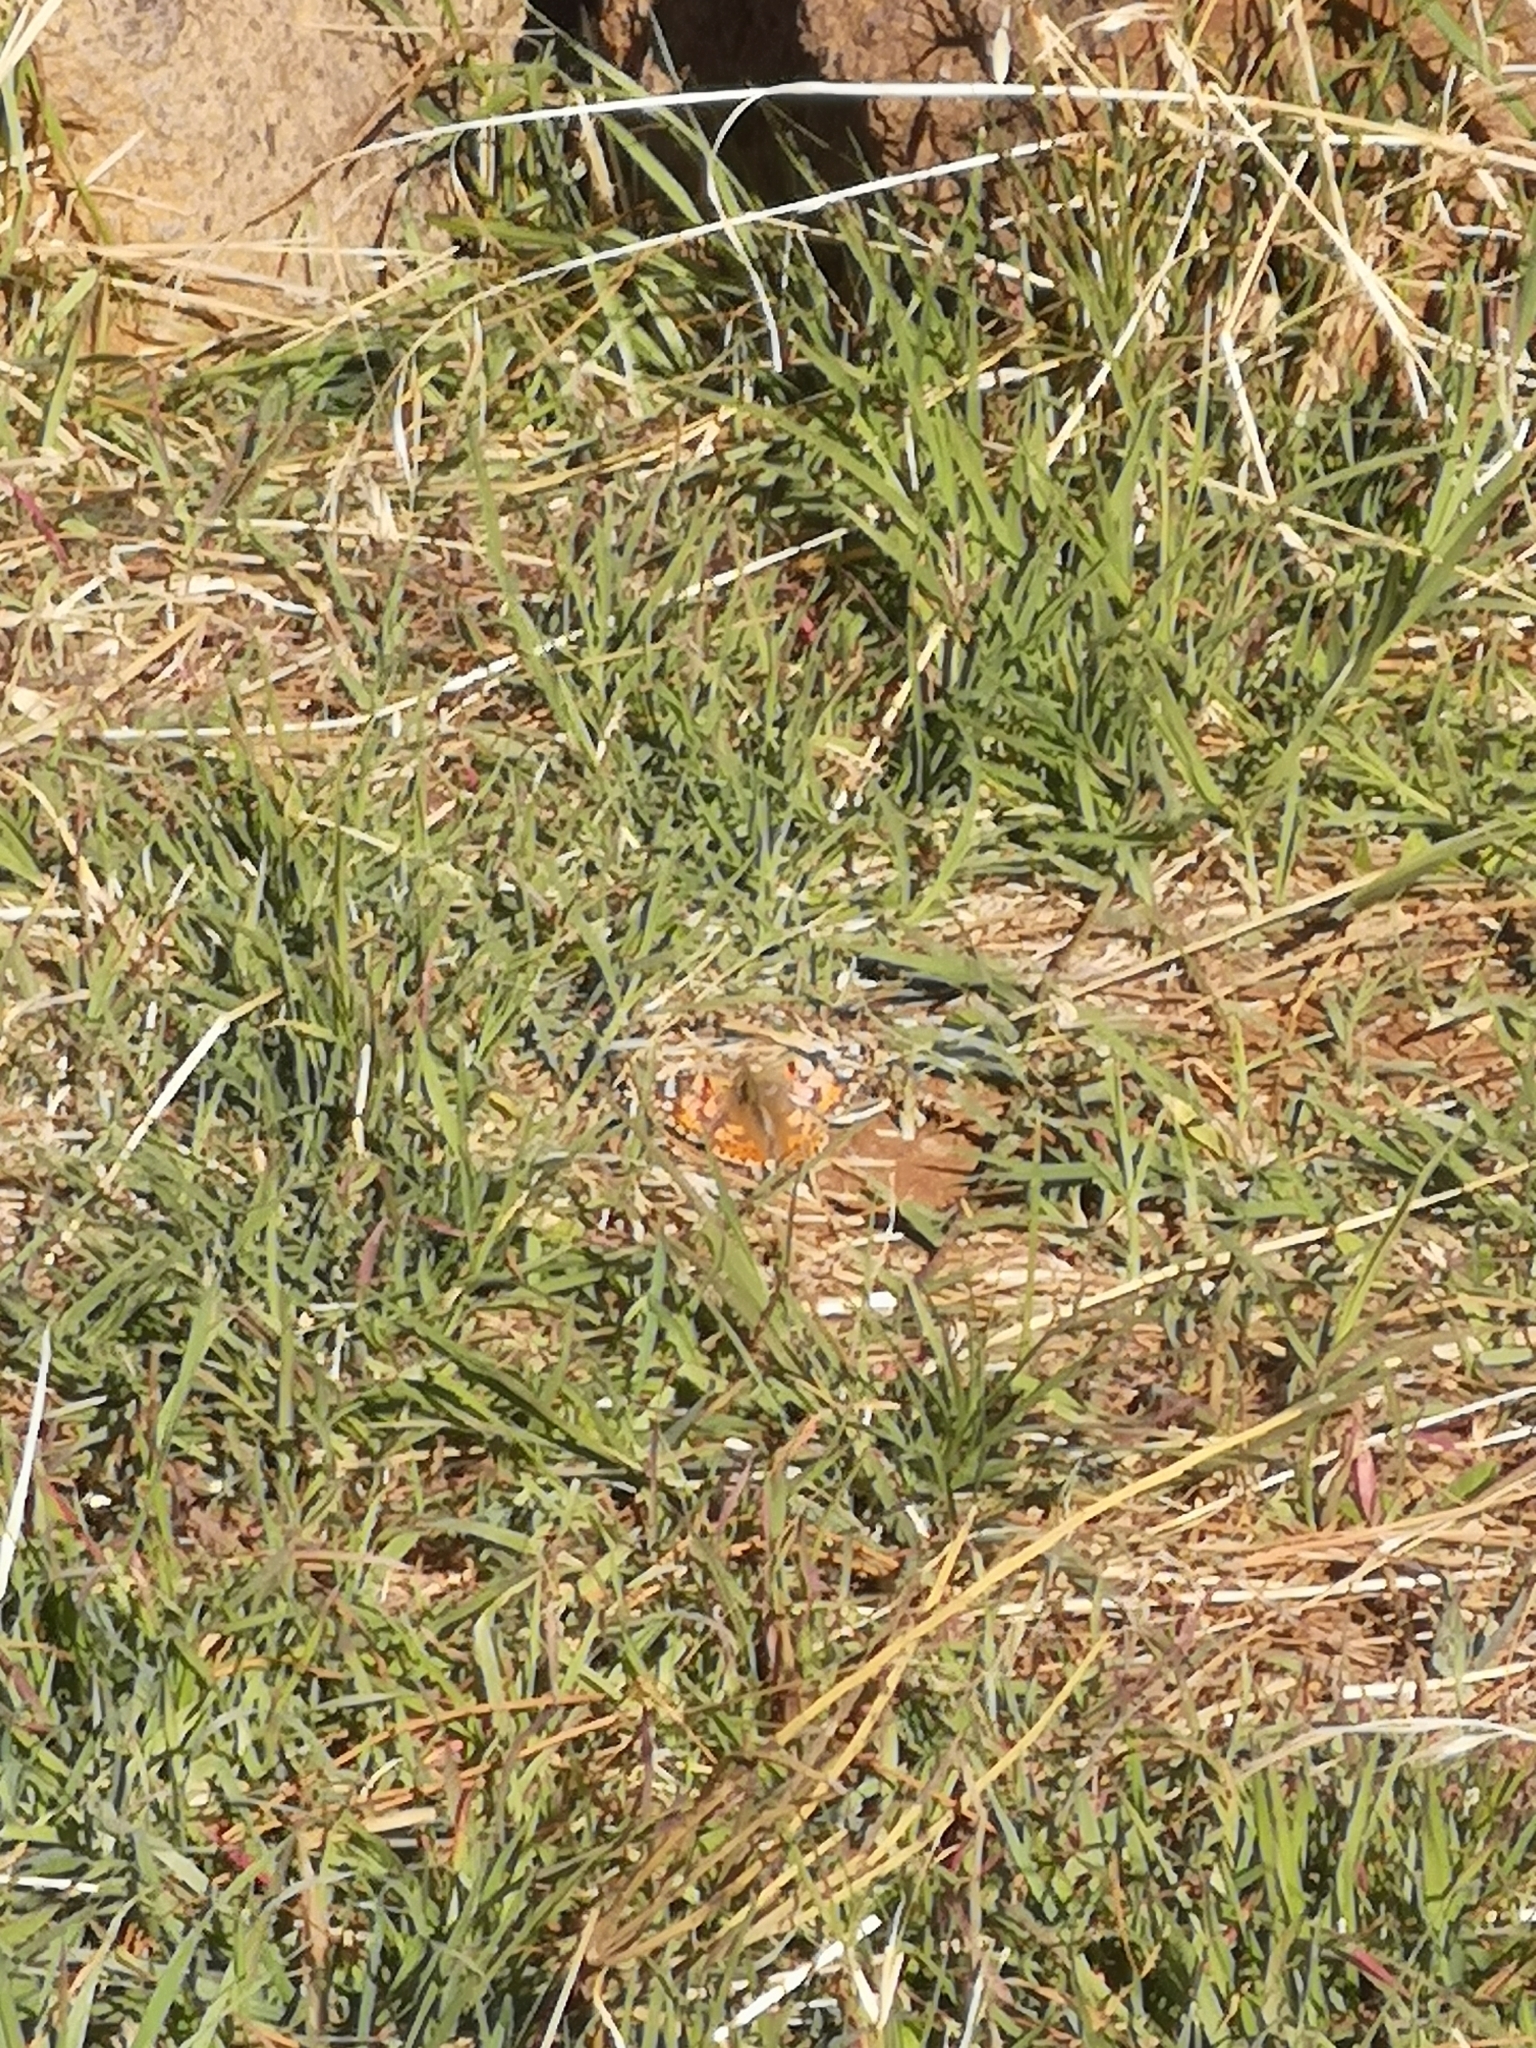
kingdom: Animalia
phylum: Arthropoda
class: Insecta
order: Lepidoptera
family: Nymphalidae
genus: Vanessa
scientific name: Vanessa cardui
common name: Painted lady
